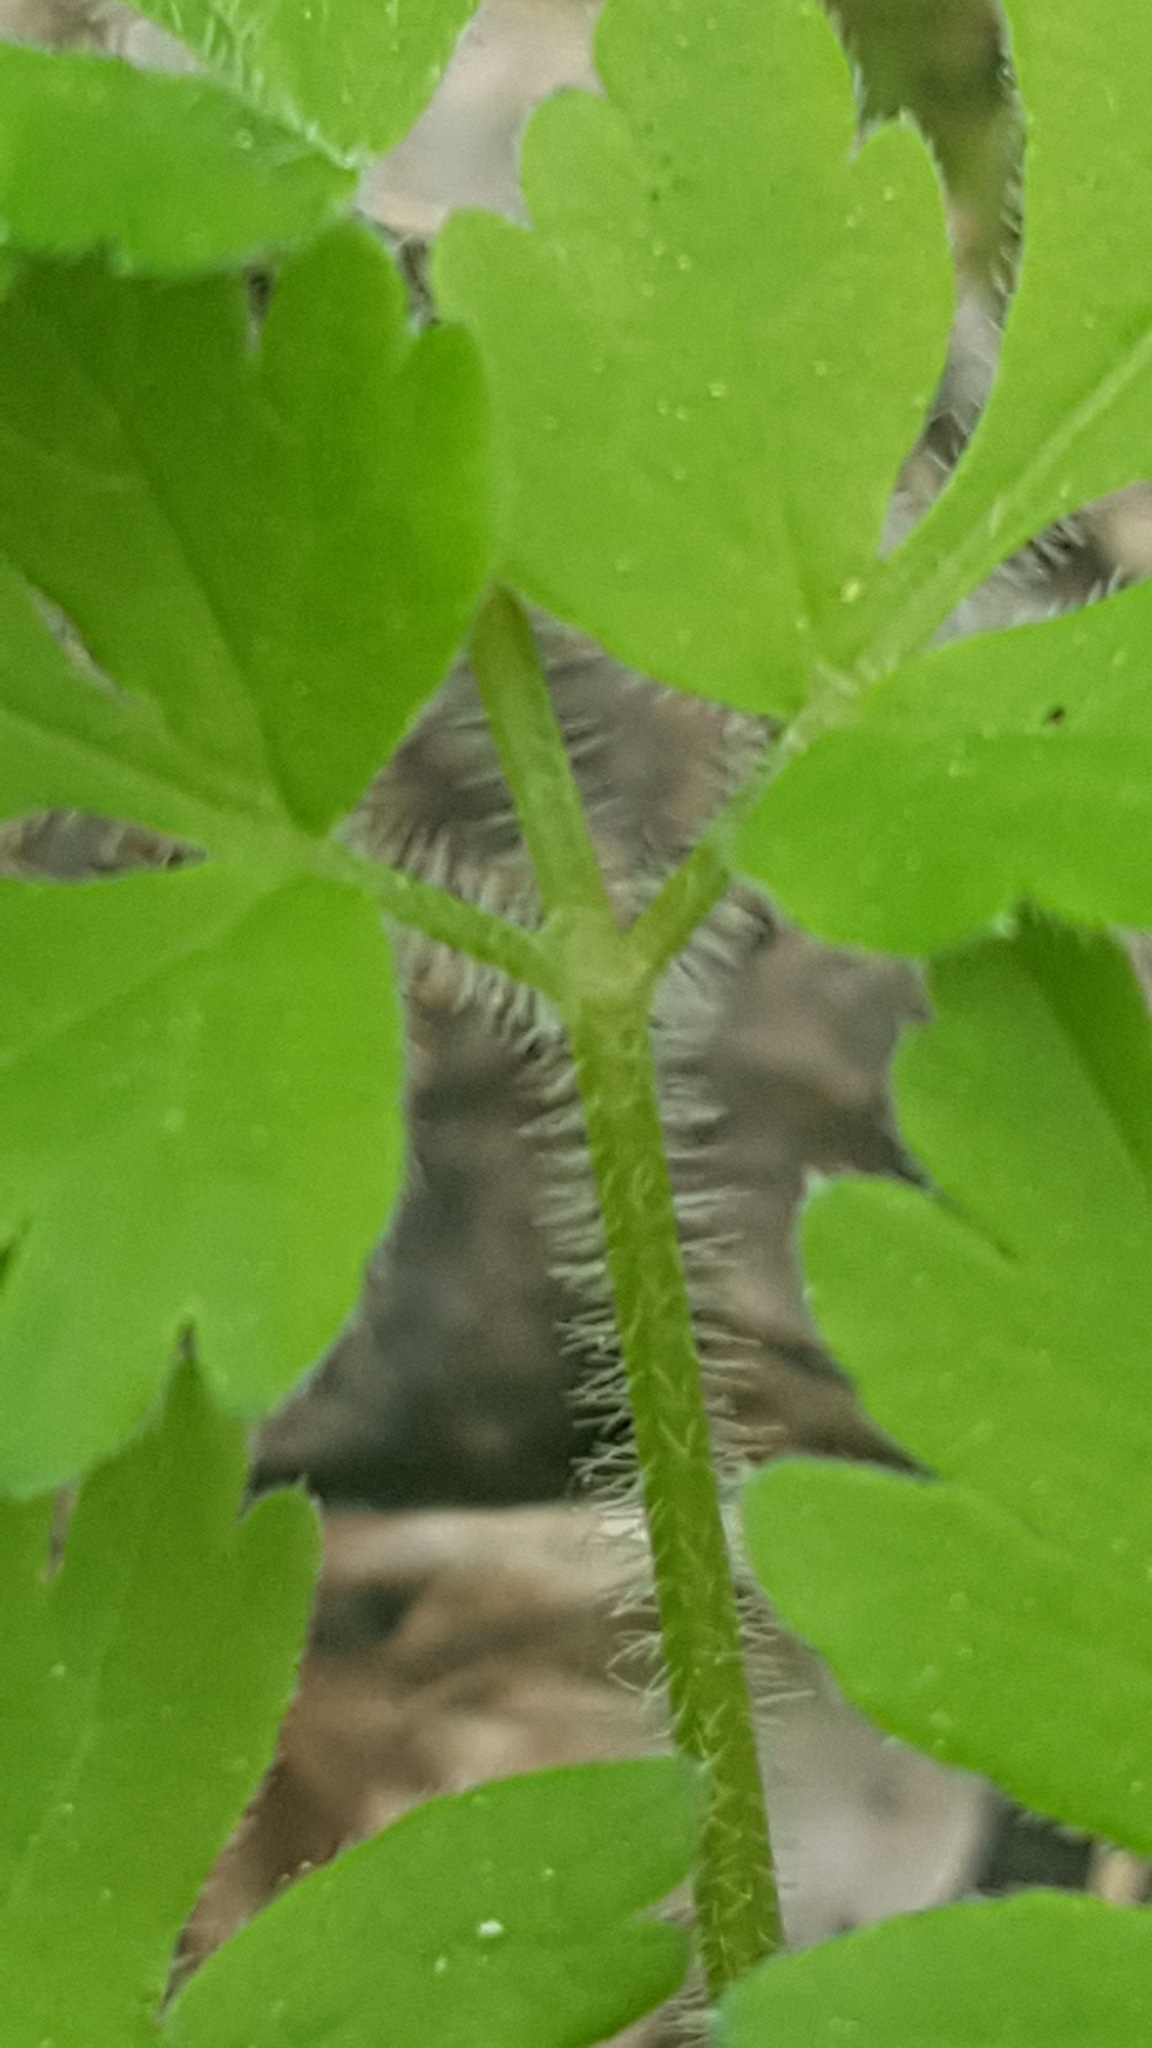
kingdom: Plantae
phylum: Tracheophyta
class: Magnoliopsida
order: Apiales
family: Apiaceae
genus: Osmorhiza
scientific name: Osmorhiza claytonii
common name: Hairy sweet cicely
